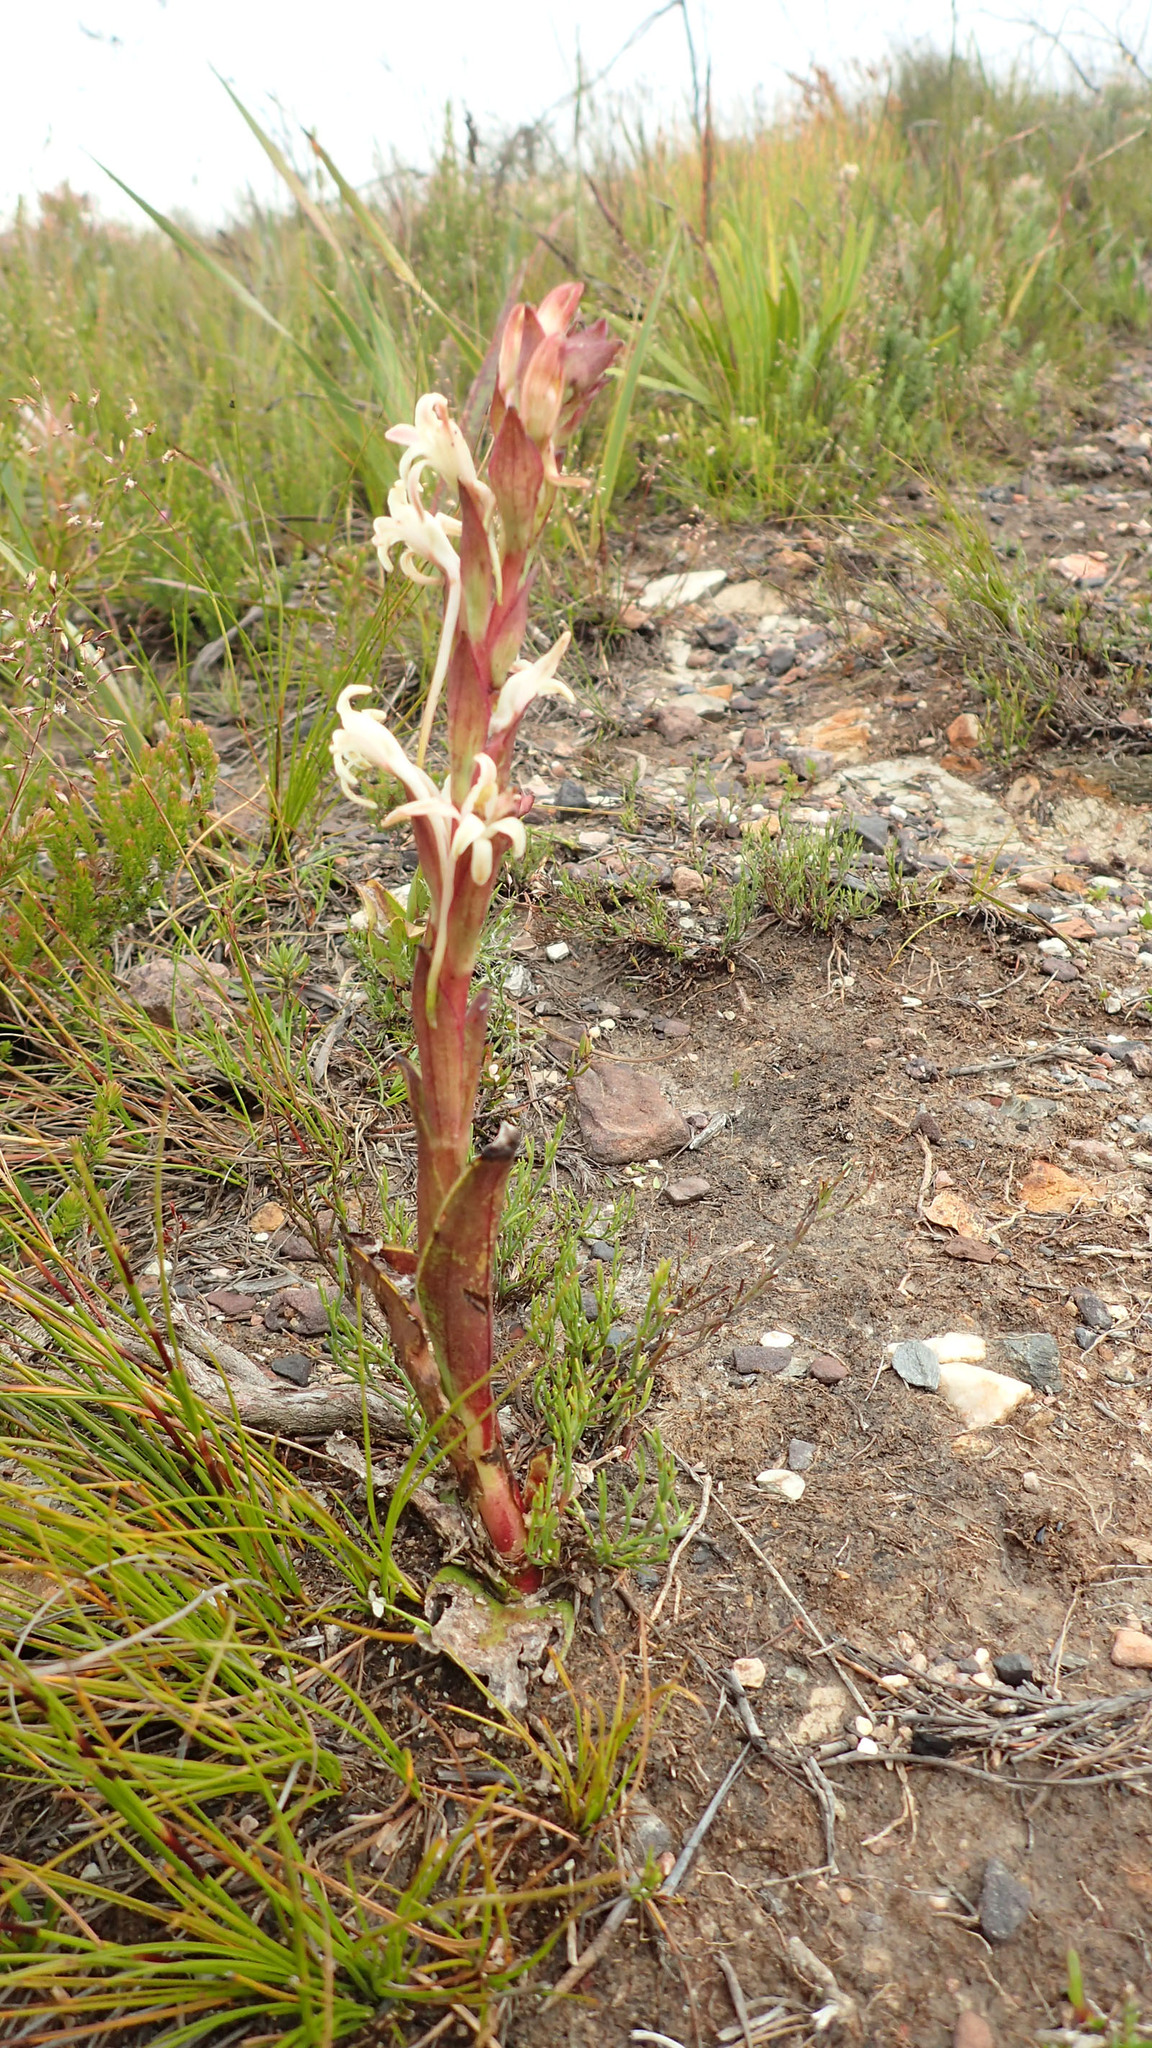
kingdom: Plantae
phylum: Tracheophyta
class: Liliopsida
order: Asparagales
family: Orchidaceae
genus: Satyrium
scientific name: Satyrium stenopetalum
